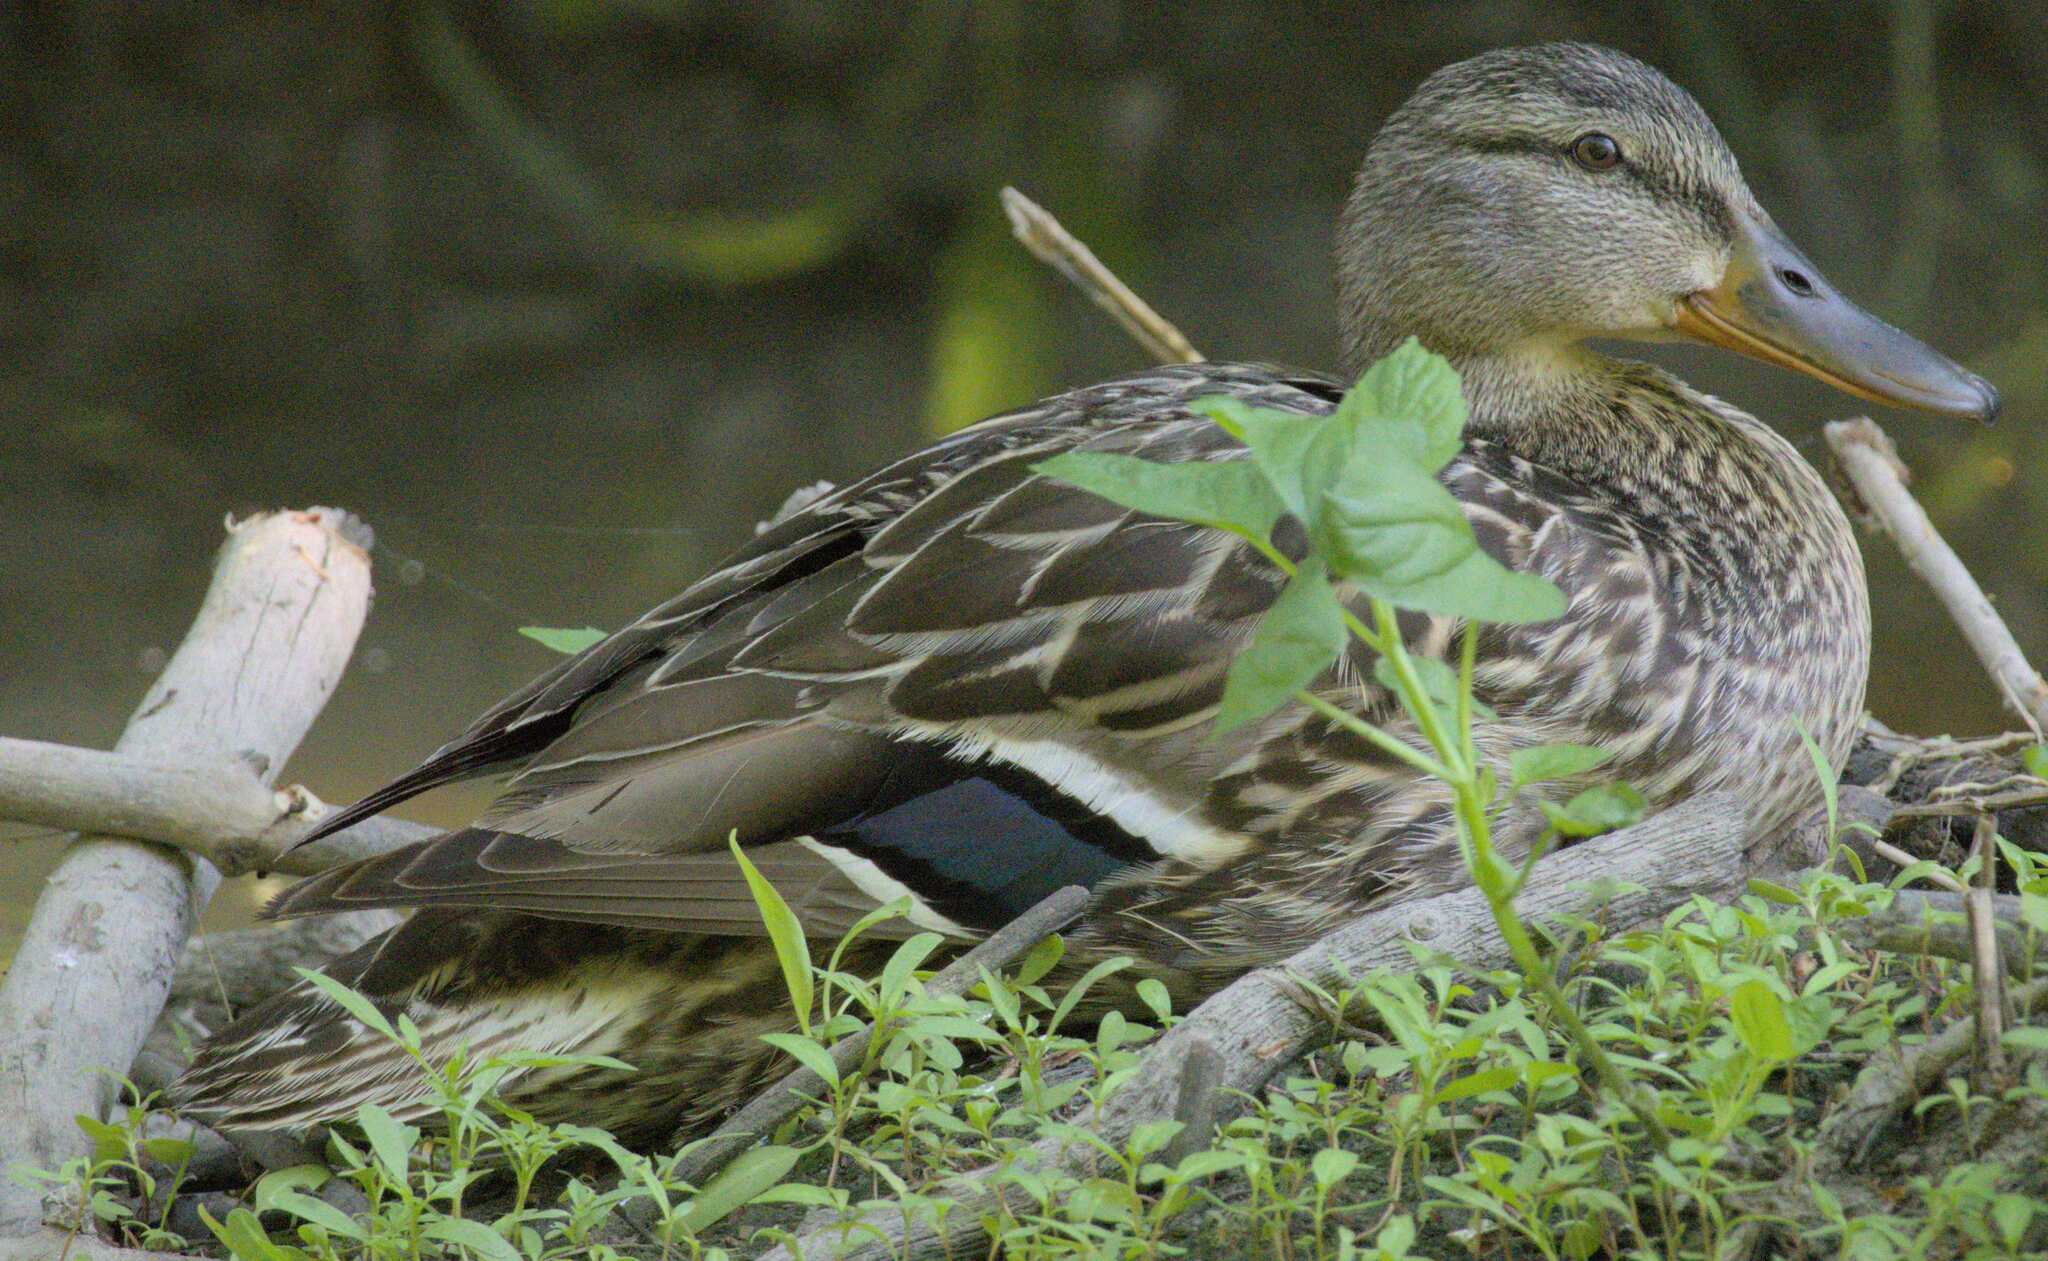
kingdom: Animalia
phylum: Chordata
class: Aves
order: Anseriformes
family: Anatidae
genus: Anas
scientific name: Anas platyrhynchos
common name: Mallard
